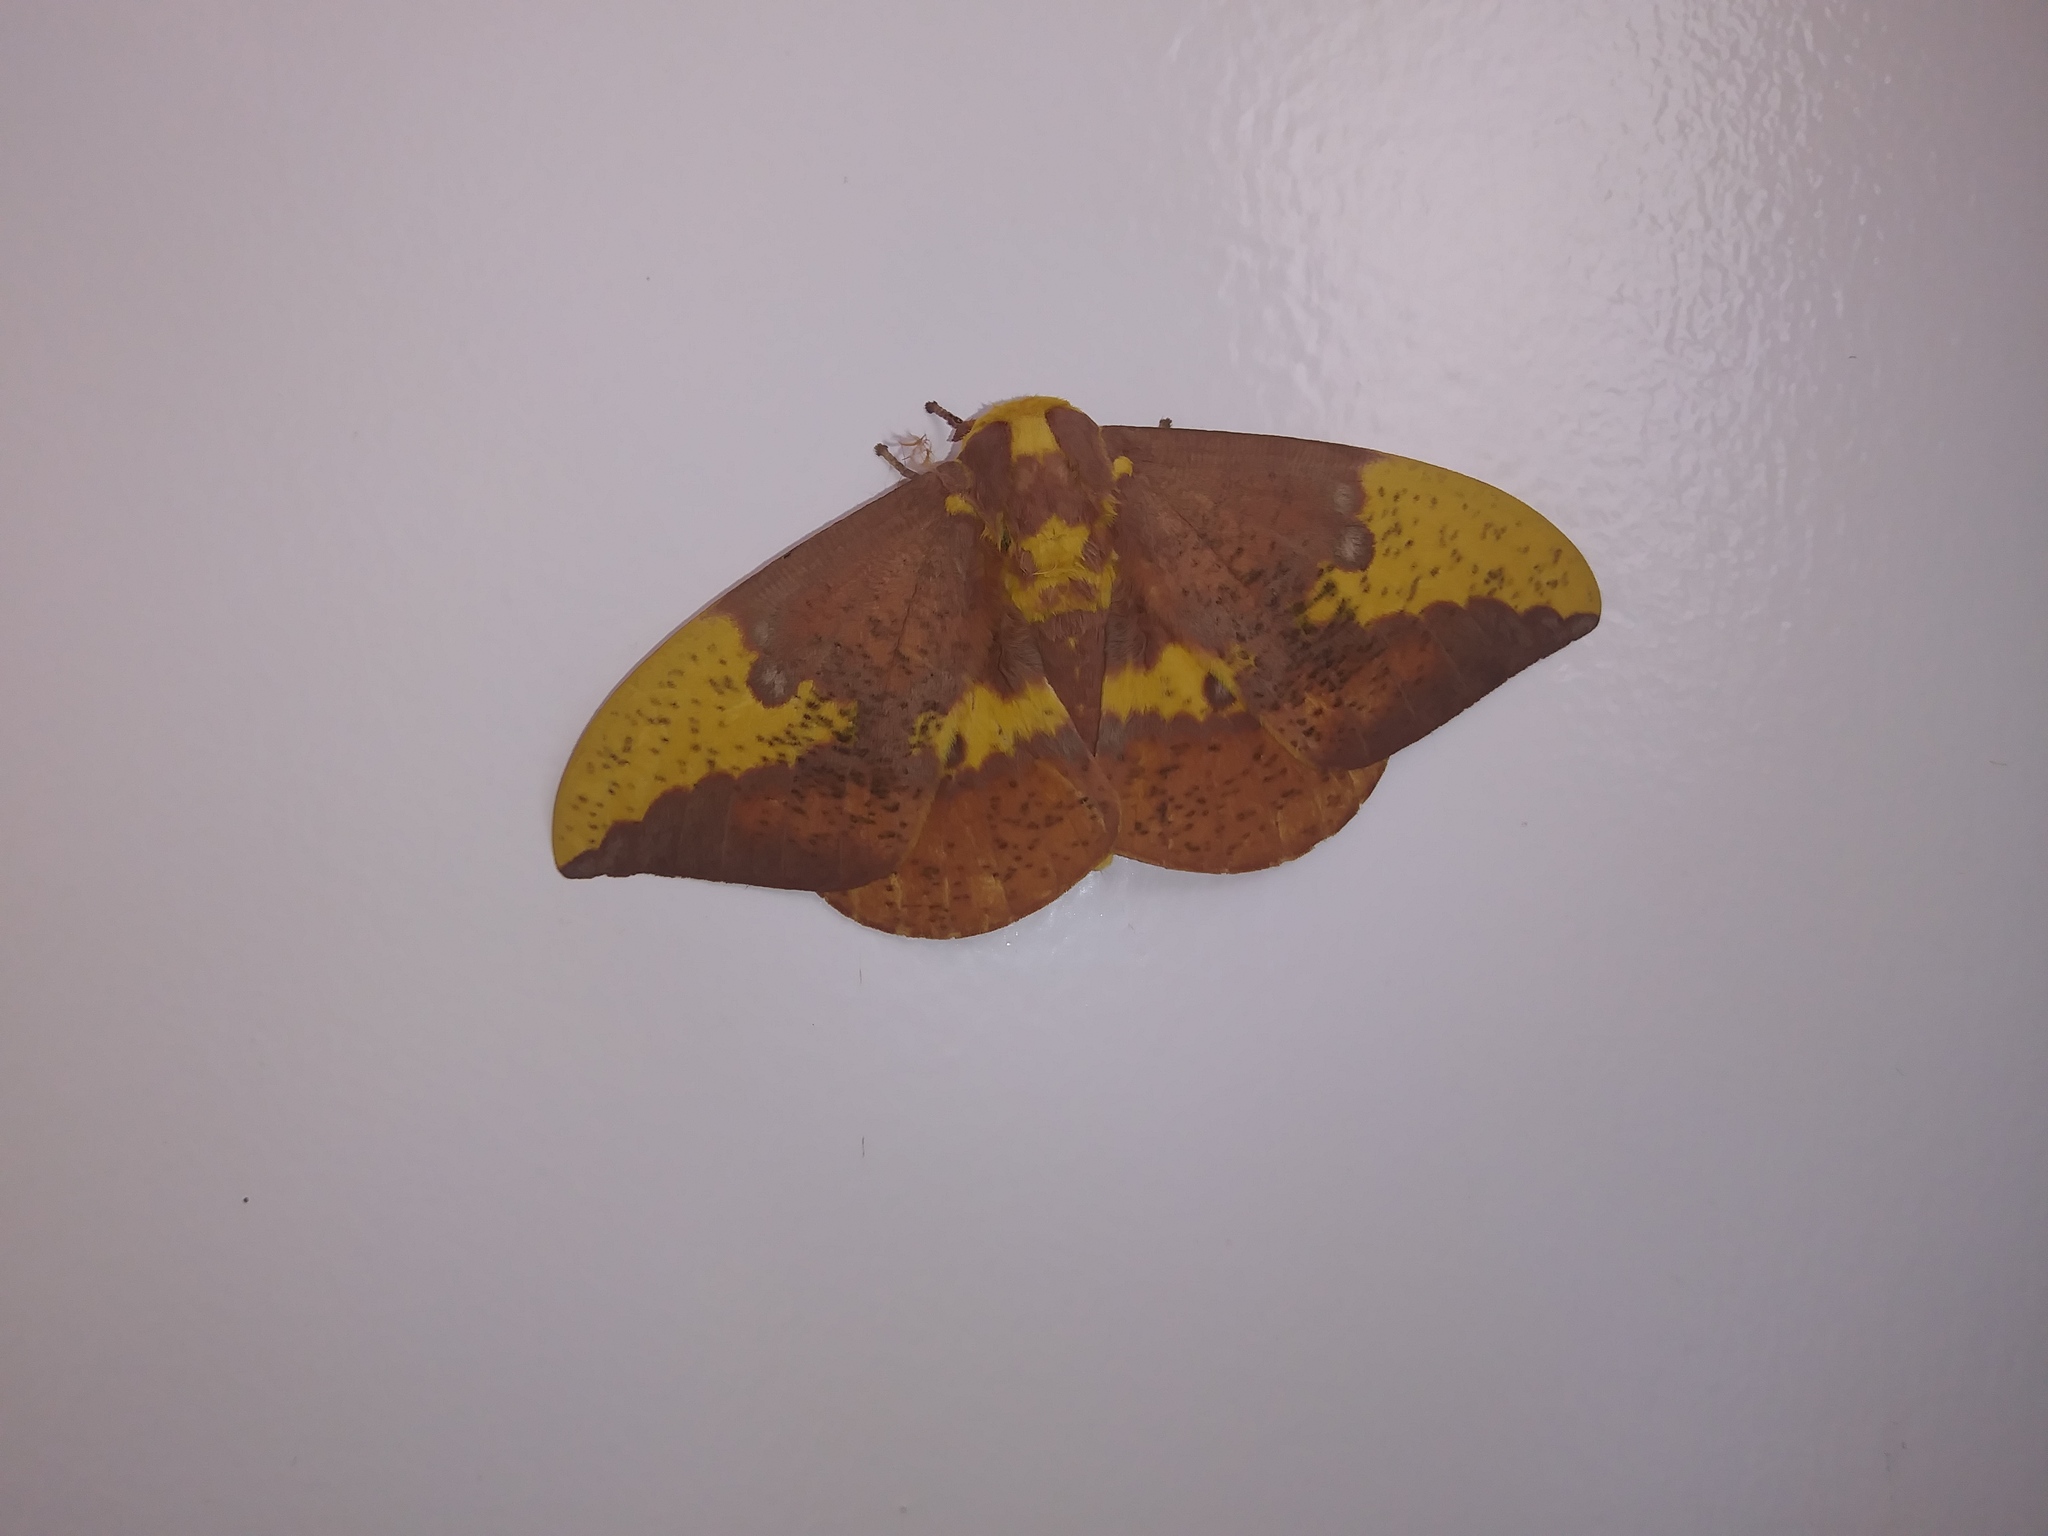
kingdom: Animalia
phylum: Arthropoda
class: Insecta
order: Lepidoptera
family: Saturniidae
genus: Eacles
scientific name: Eacles imperialis
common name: Imperial moth
